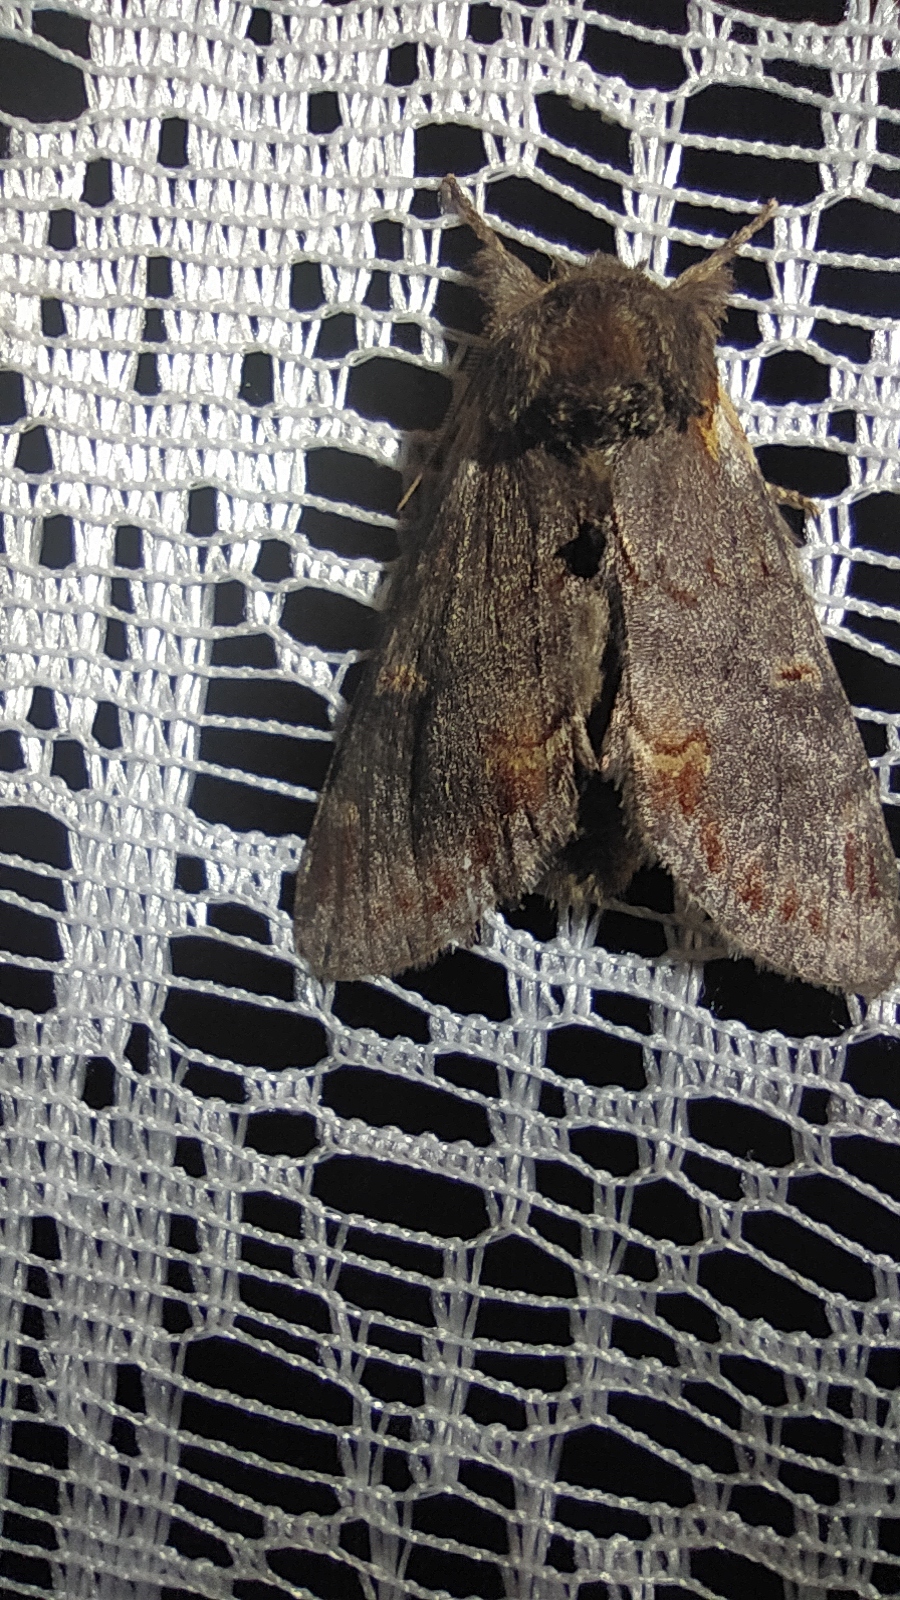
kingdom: Animalia
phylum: Arthropoda
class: Insecta
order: Lepidoptera
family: Notodontidae
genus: Notodonta
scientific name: Notodonta dromedarius
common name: Iron prominent
